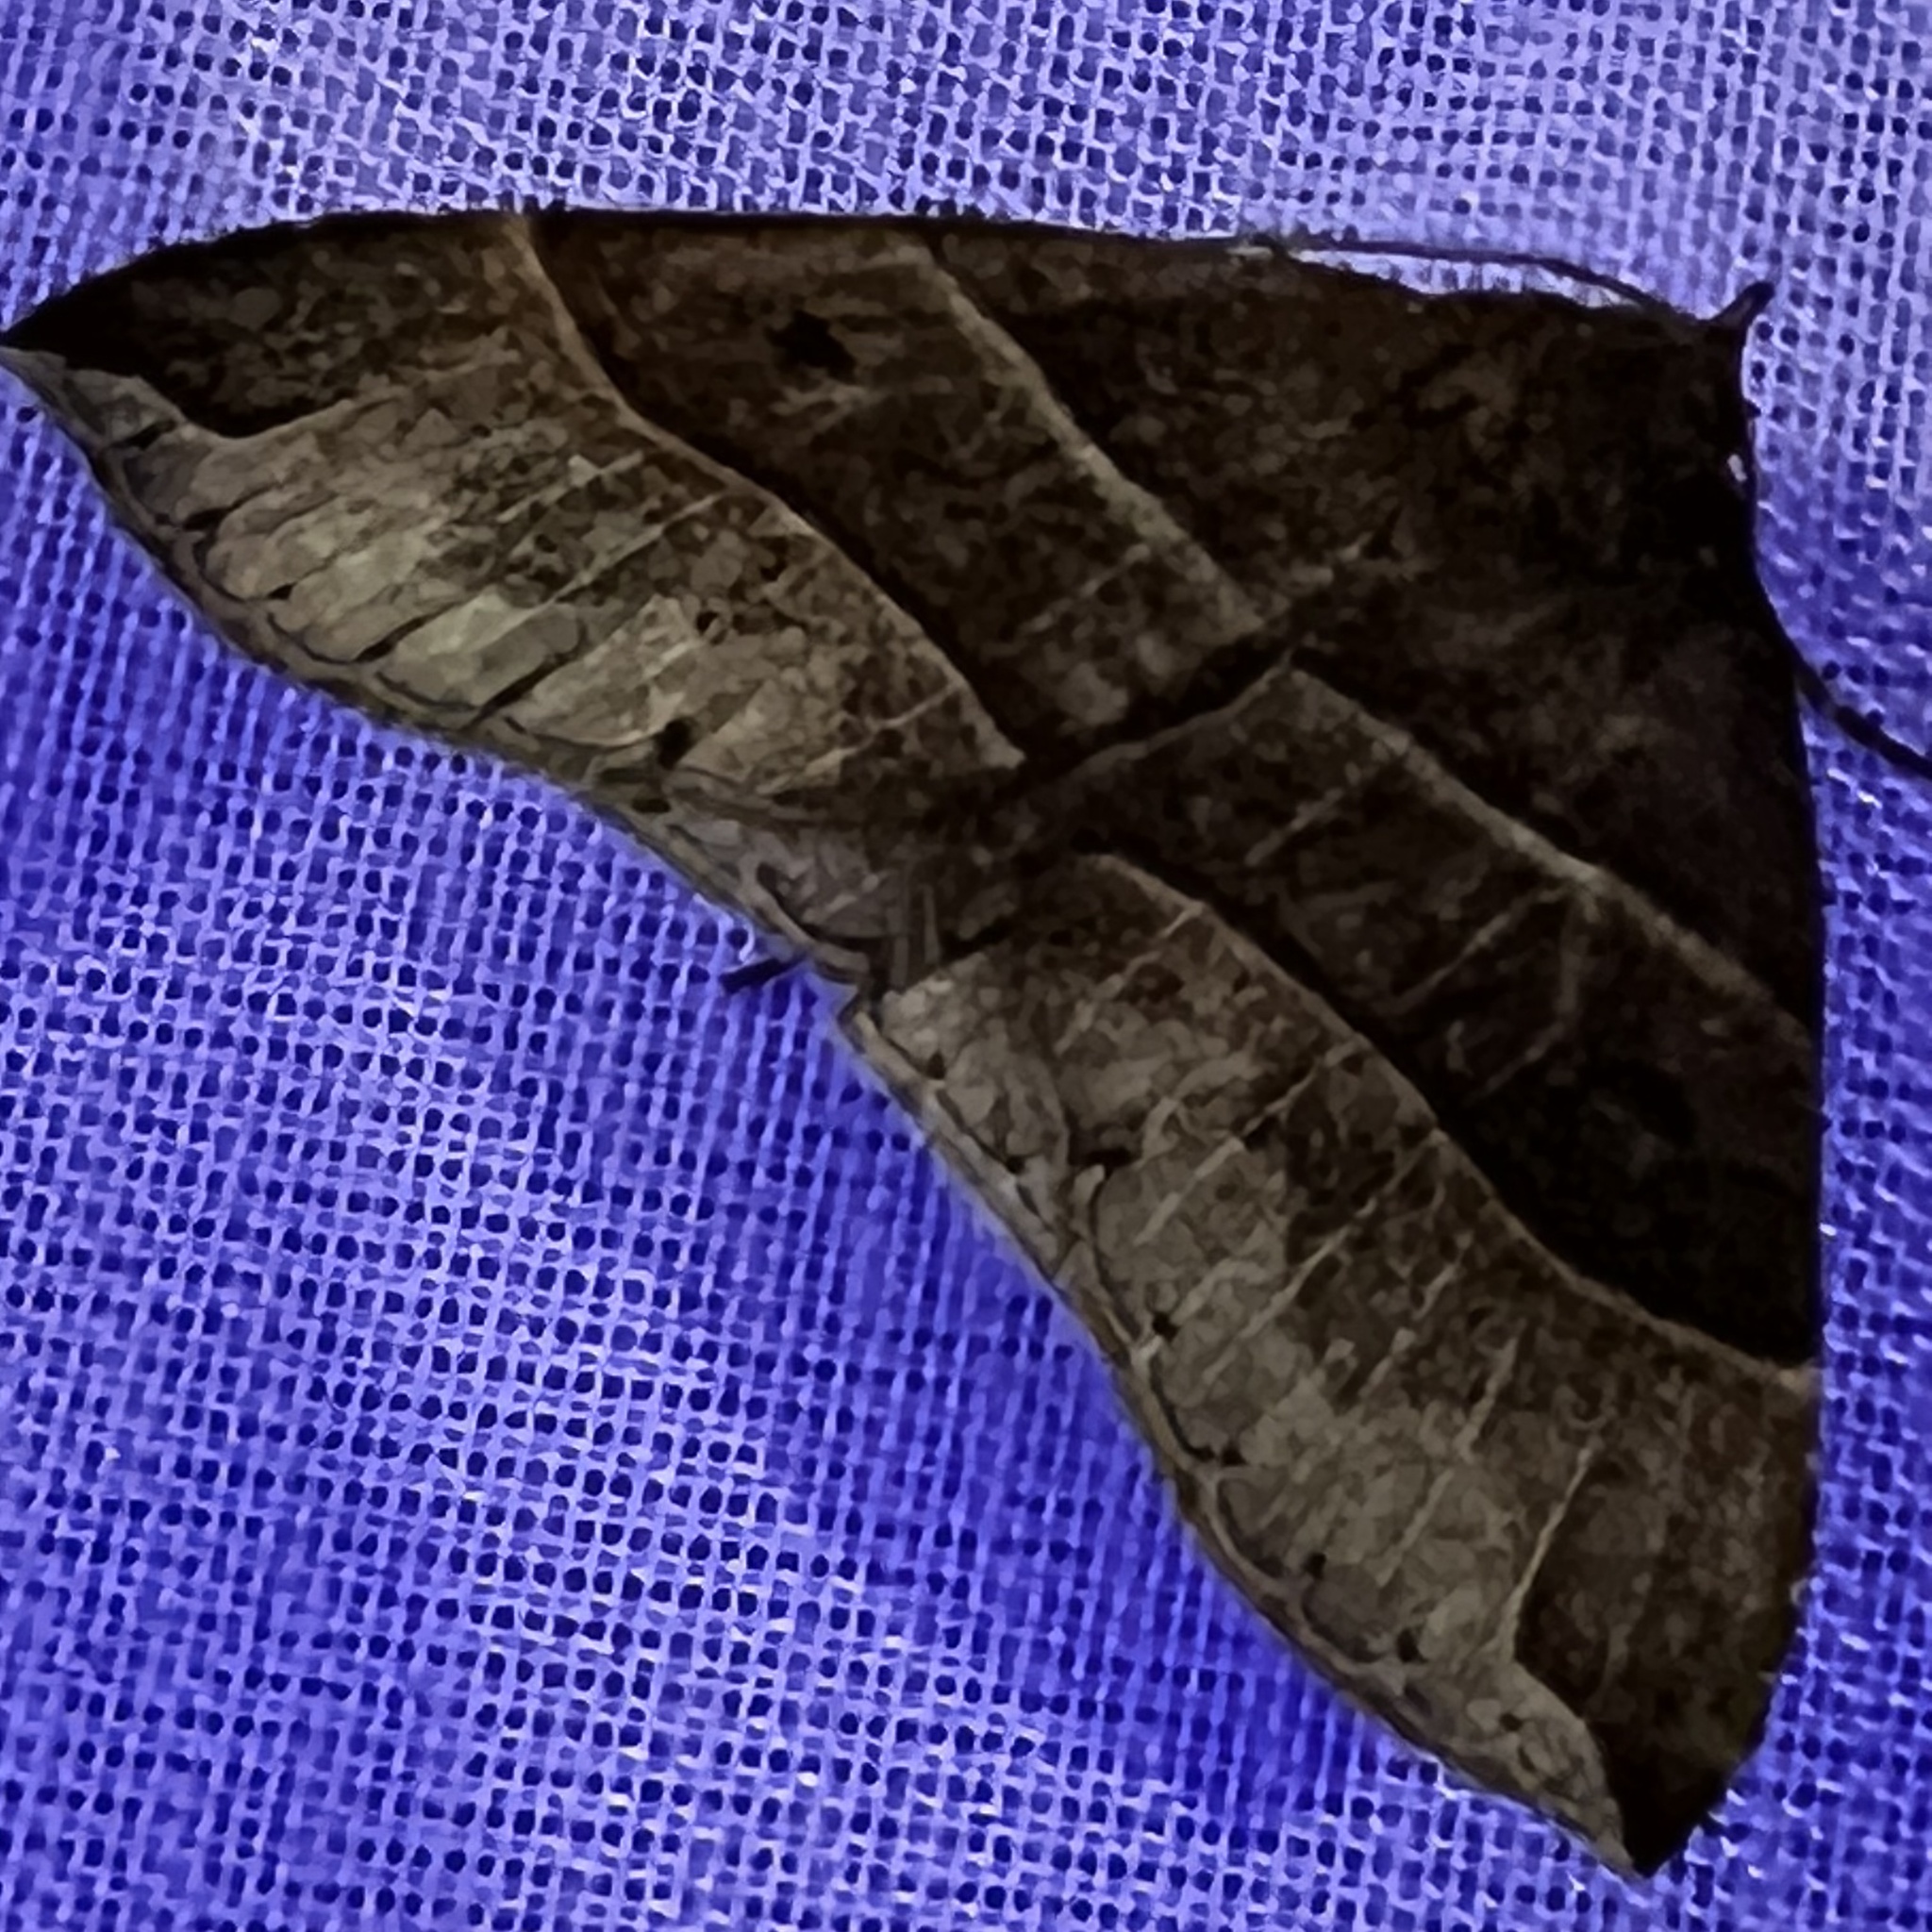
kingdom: Animalia
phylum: Arthropoda
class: Insecta
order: Lepidoptera
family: Erebidae
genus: Parallelia
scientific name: Parallelia bistriaris
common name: Maple looper moth
